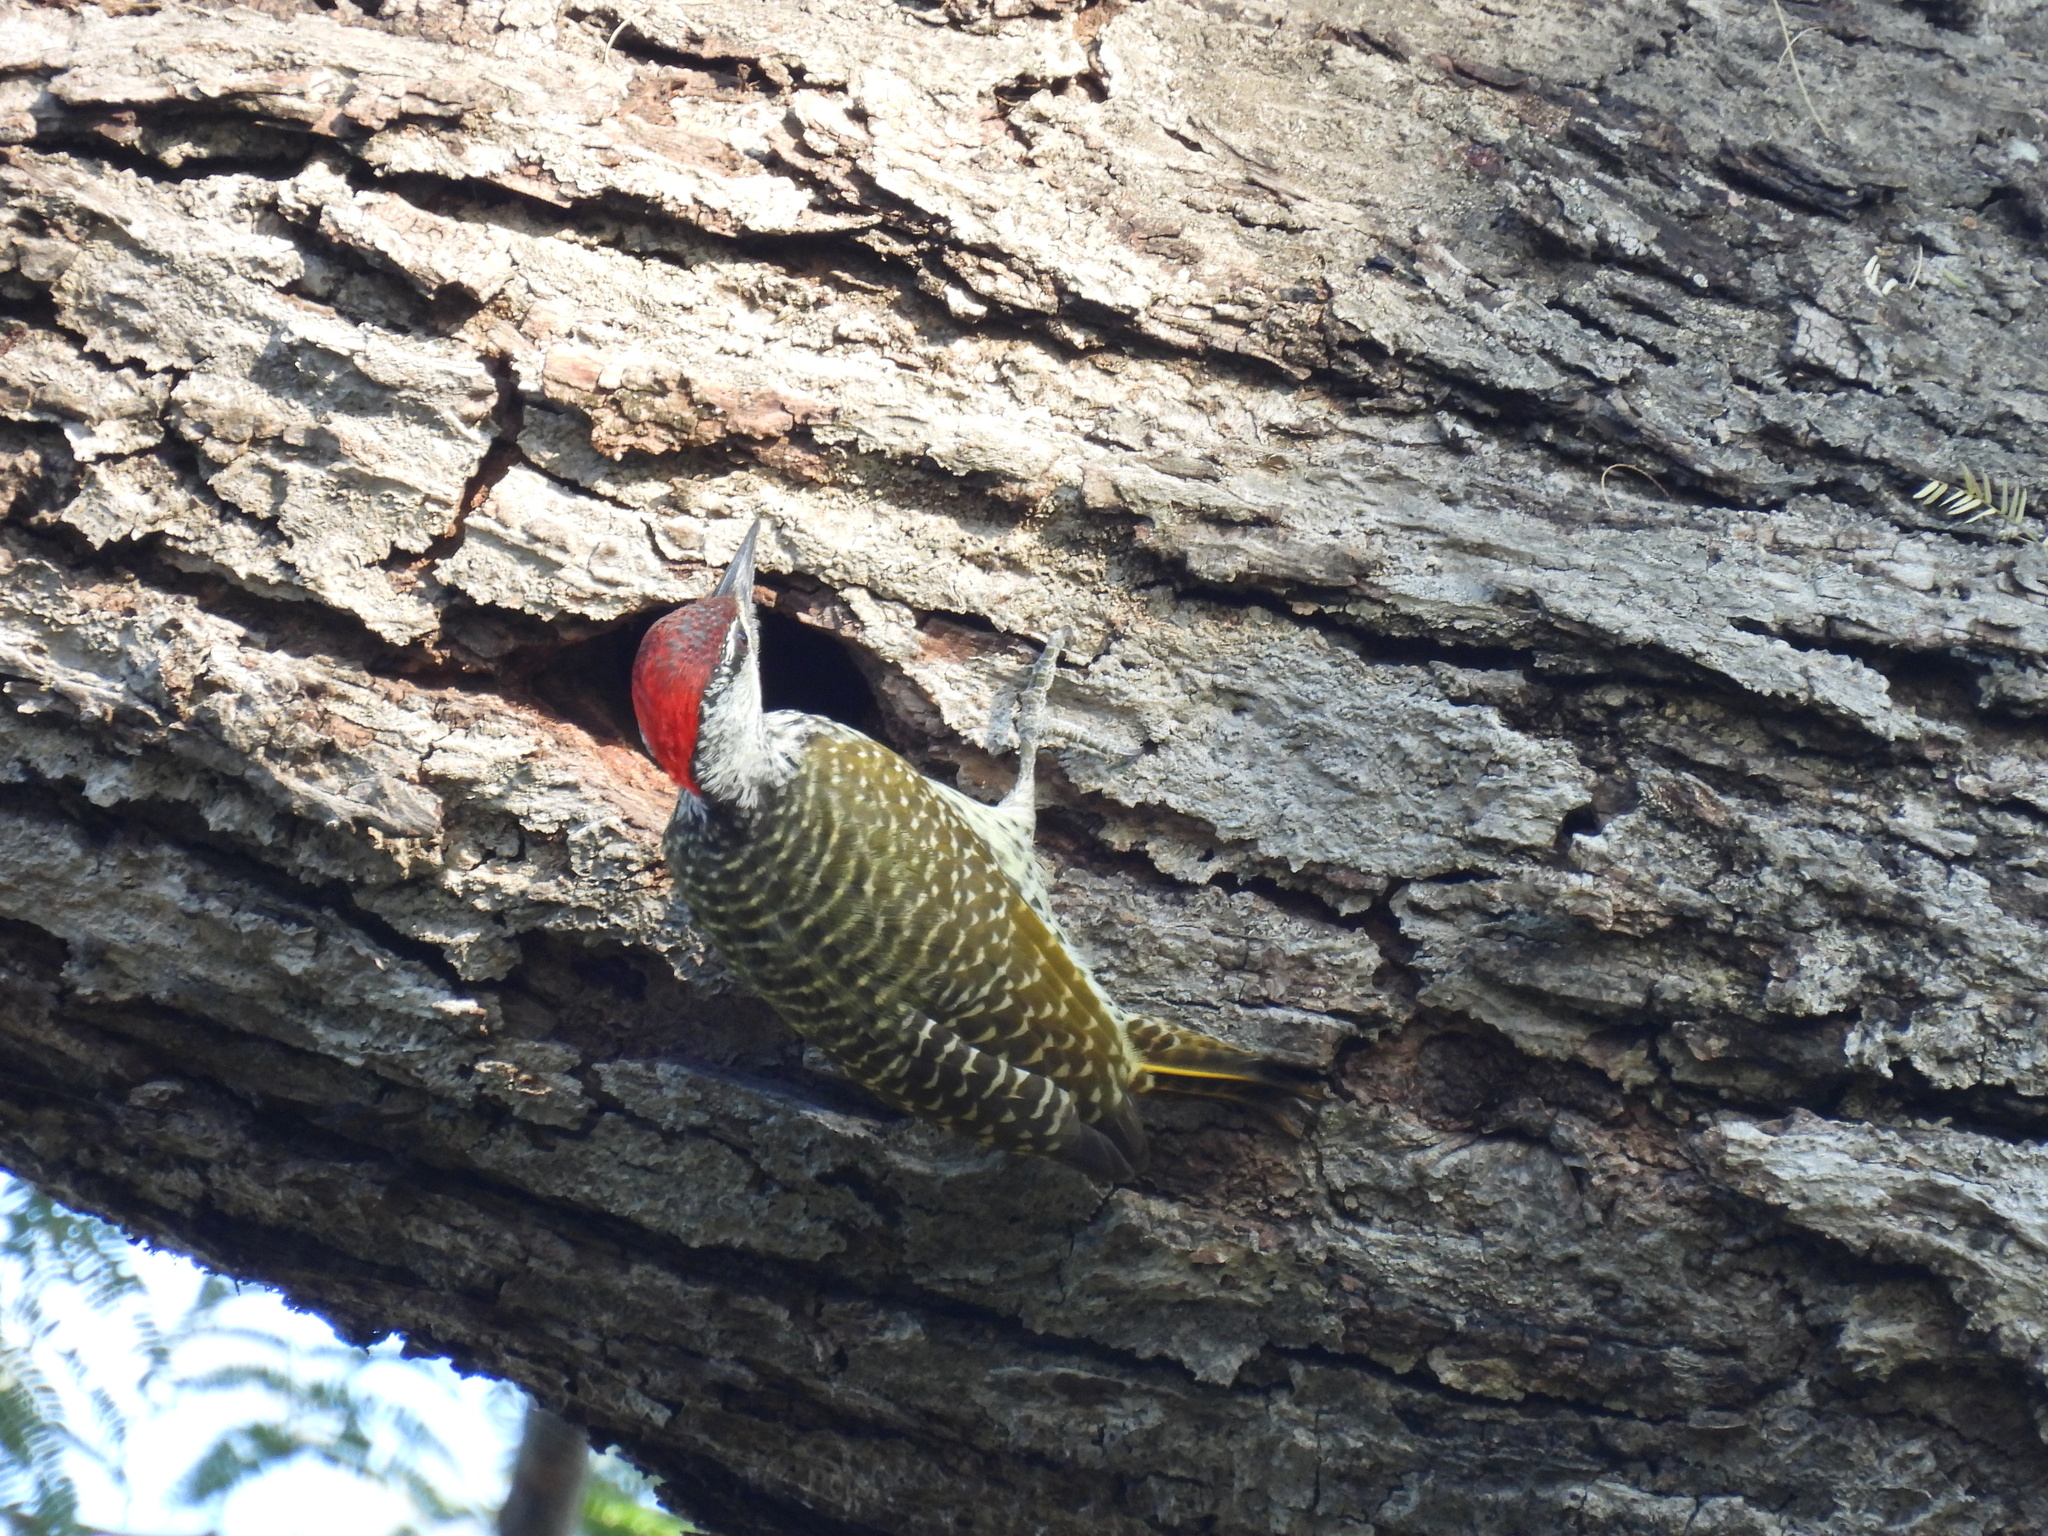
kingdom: Animalia
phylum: Chordata
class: Aves
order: Piciformes
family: Picidae
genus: Campethera
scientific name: Campethera abingoni
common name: Golden-tailed woodpecker
